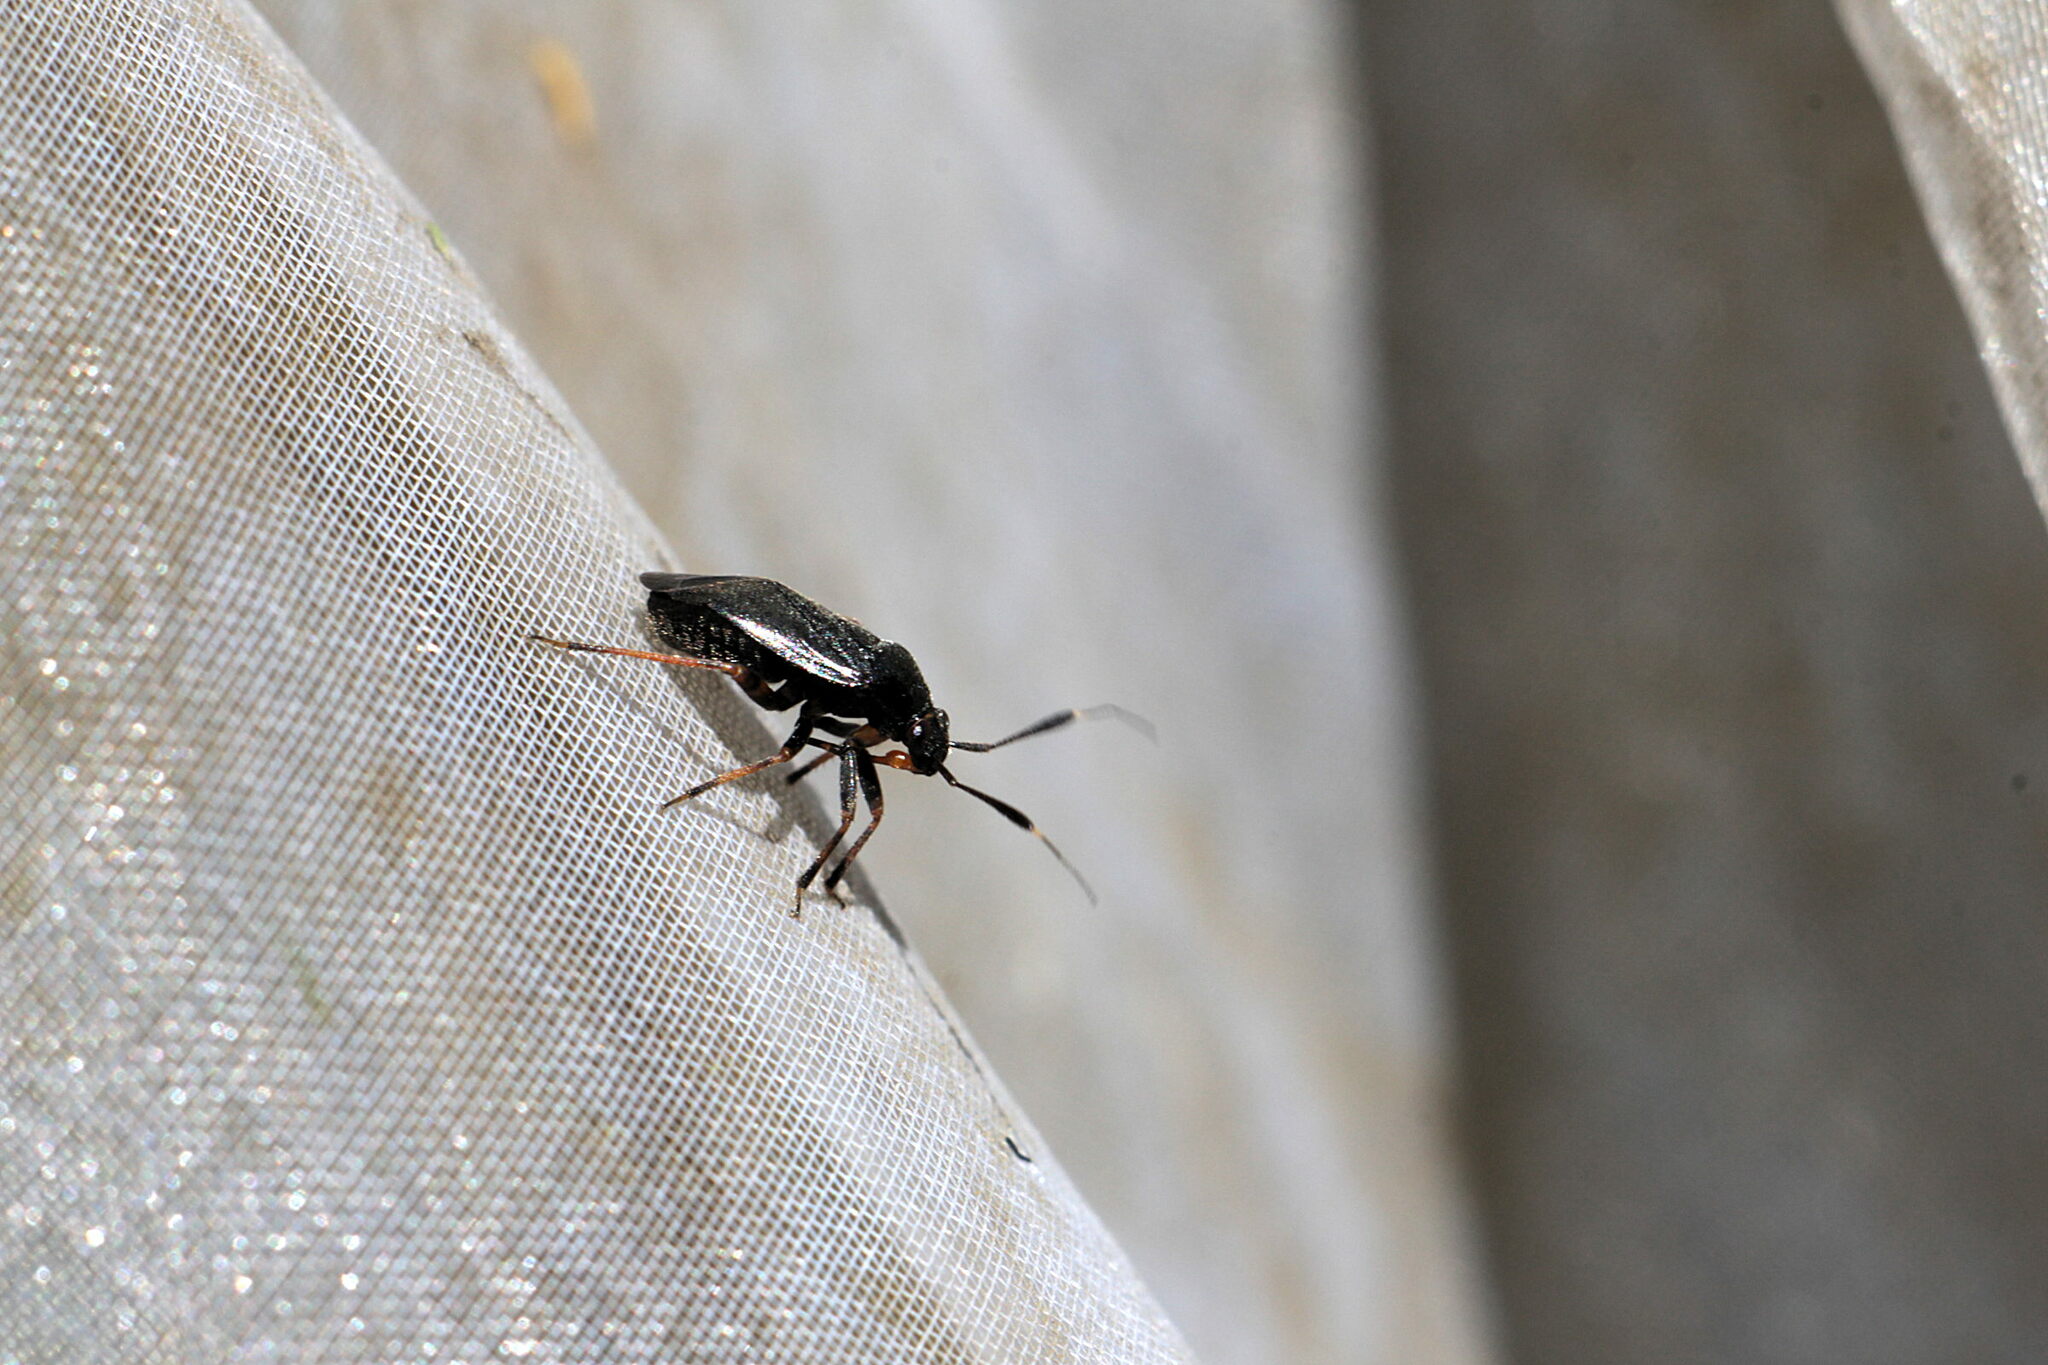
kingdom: Animalia
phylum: Arthropoda
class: Insecta
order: Hemiptera
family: Miridae
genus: Capsus
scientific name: Capsus ater
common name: Black plant bug
